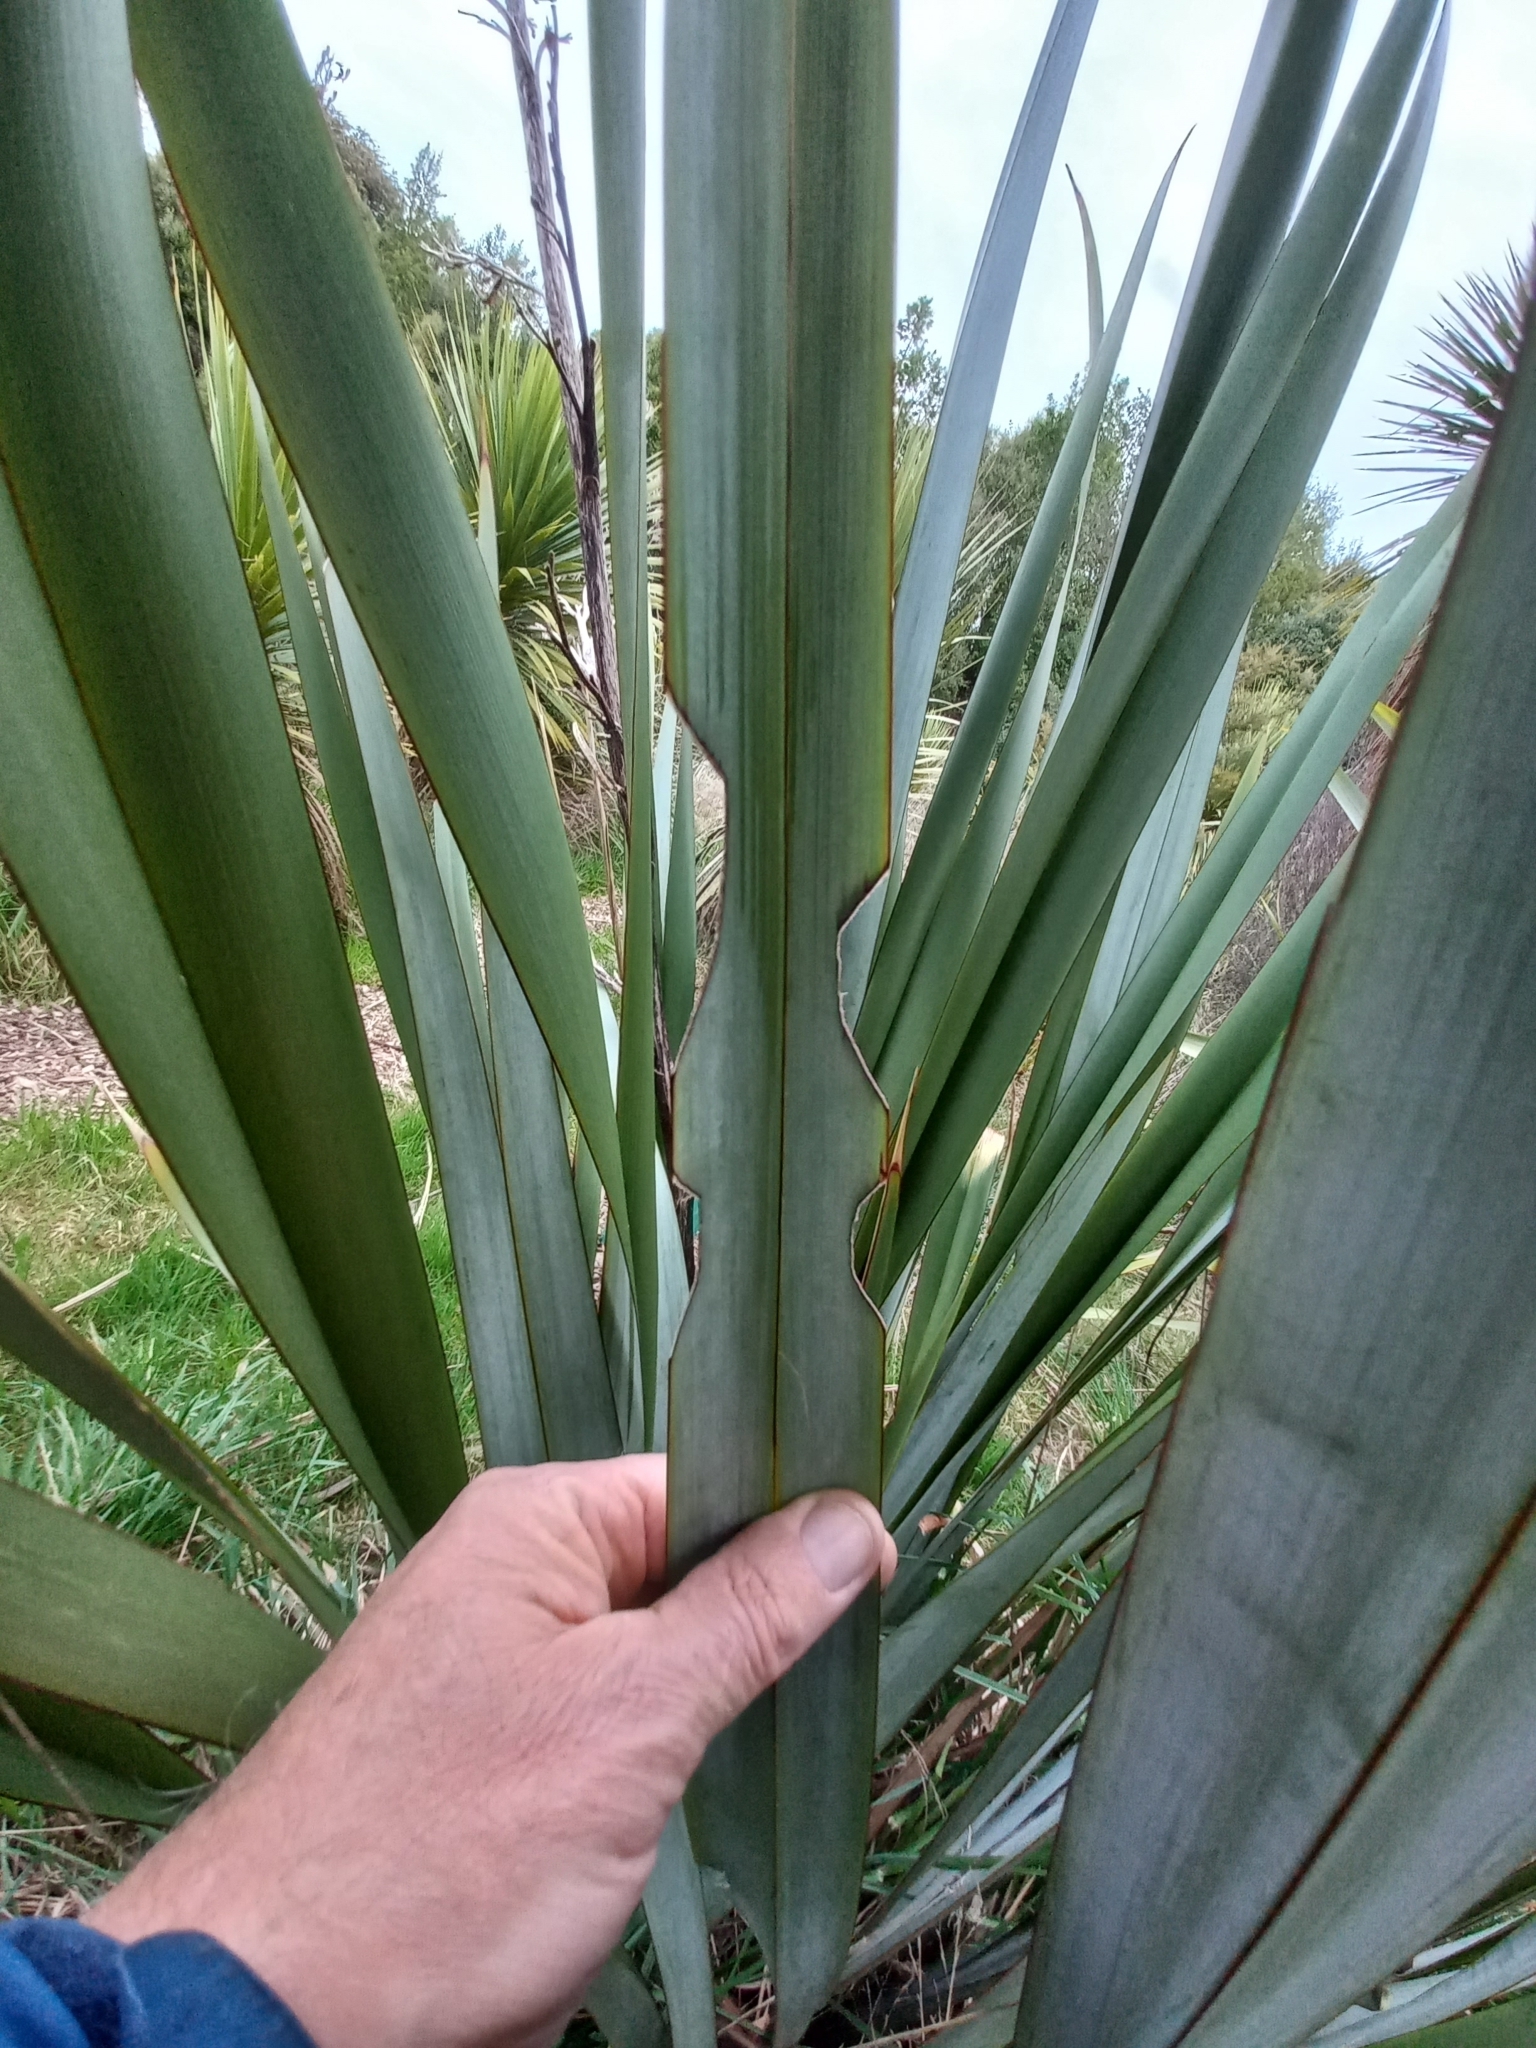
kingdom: Animalia
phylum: Arthropoda
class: Insecta
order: Lepidoptera
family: Noctuidae
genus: Ichneutica
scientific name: Ichneutica
